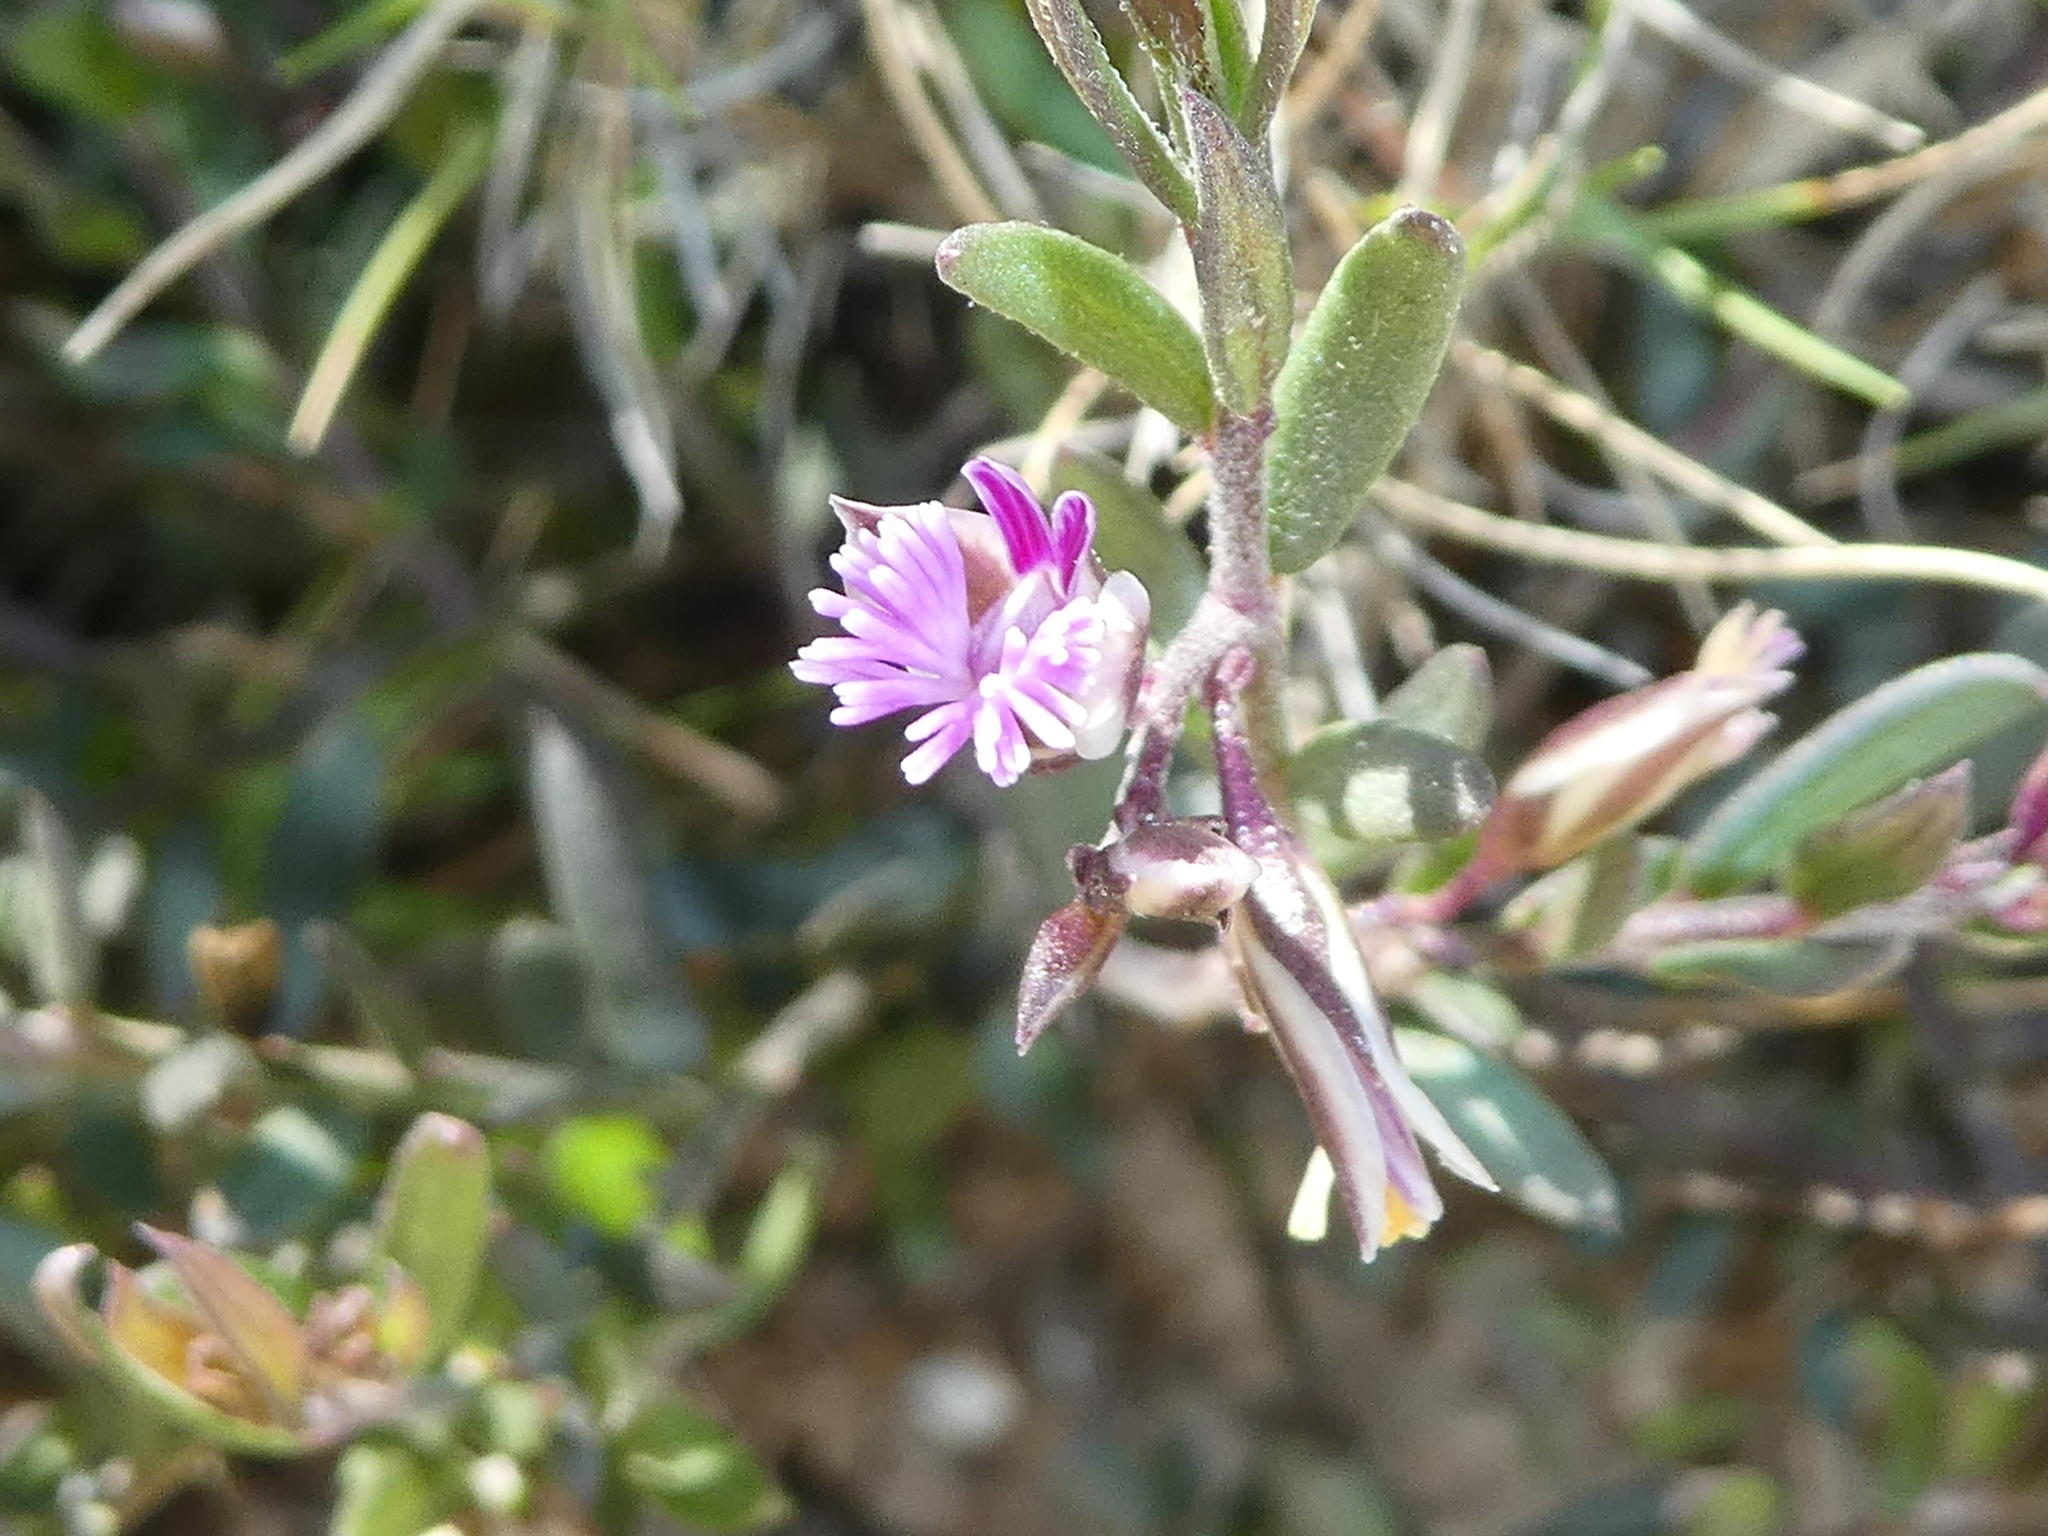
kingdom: Plantae
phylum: Tracheophyta
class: Magnoliopsida
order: Fabales
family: Polygalaceae
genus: Polygala
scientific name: Polygala rupestris
